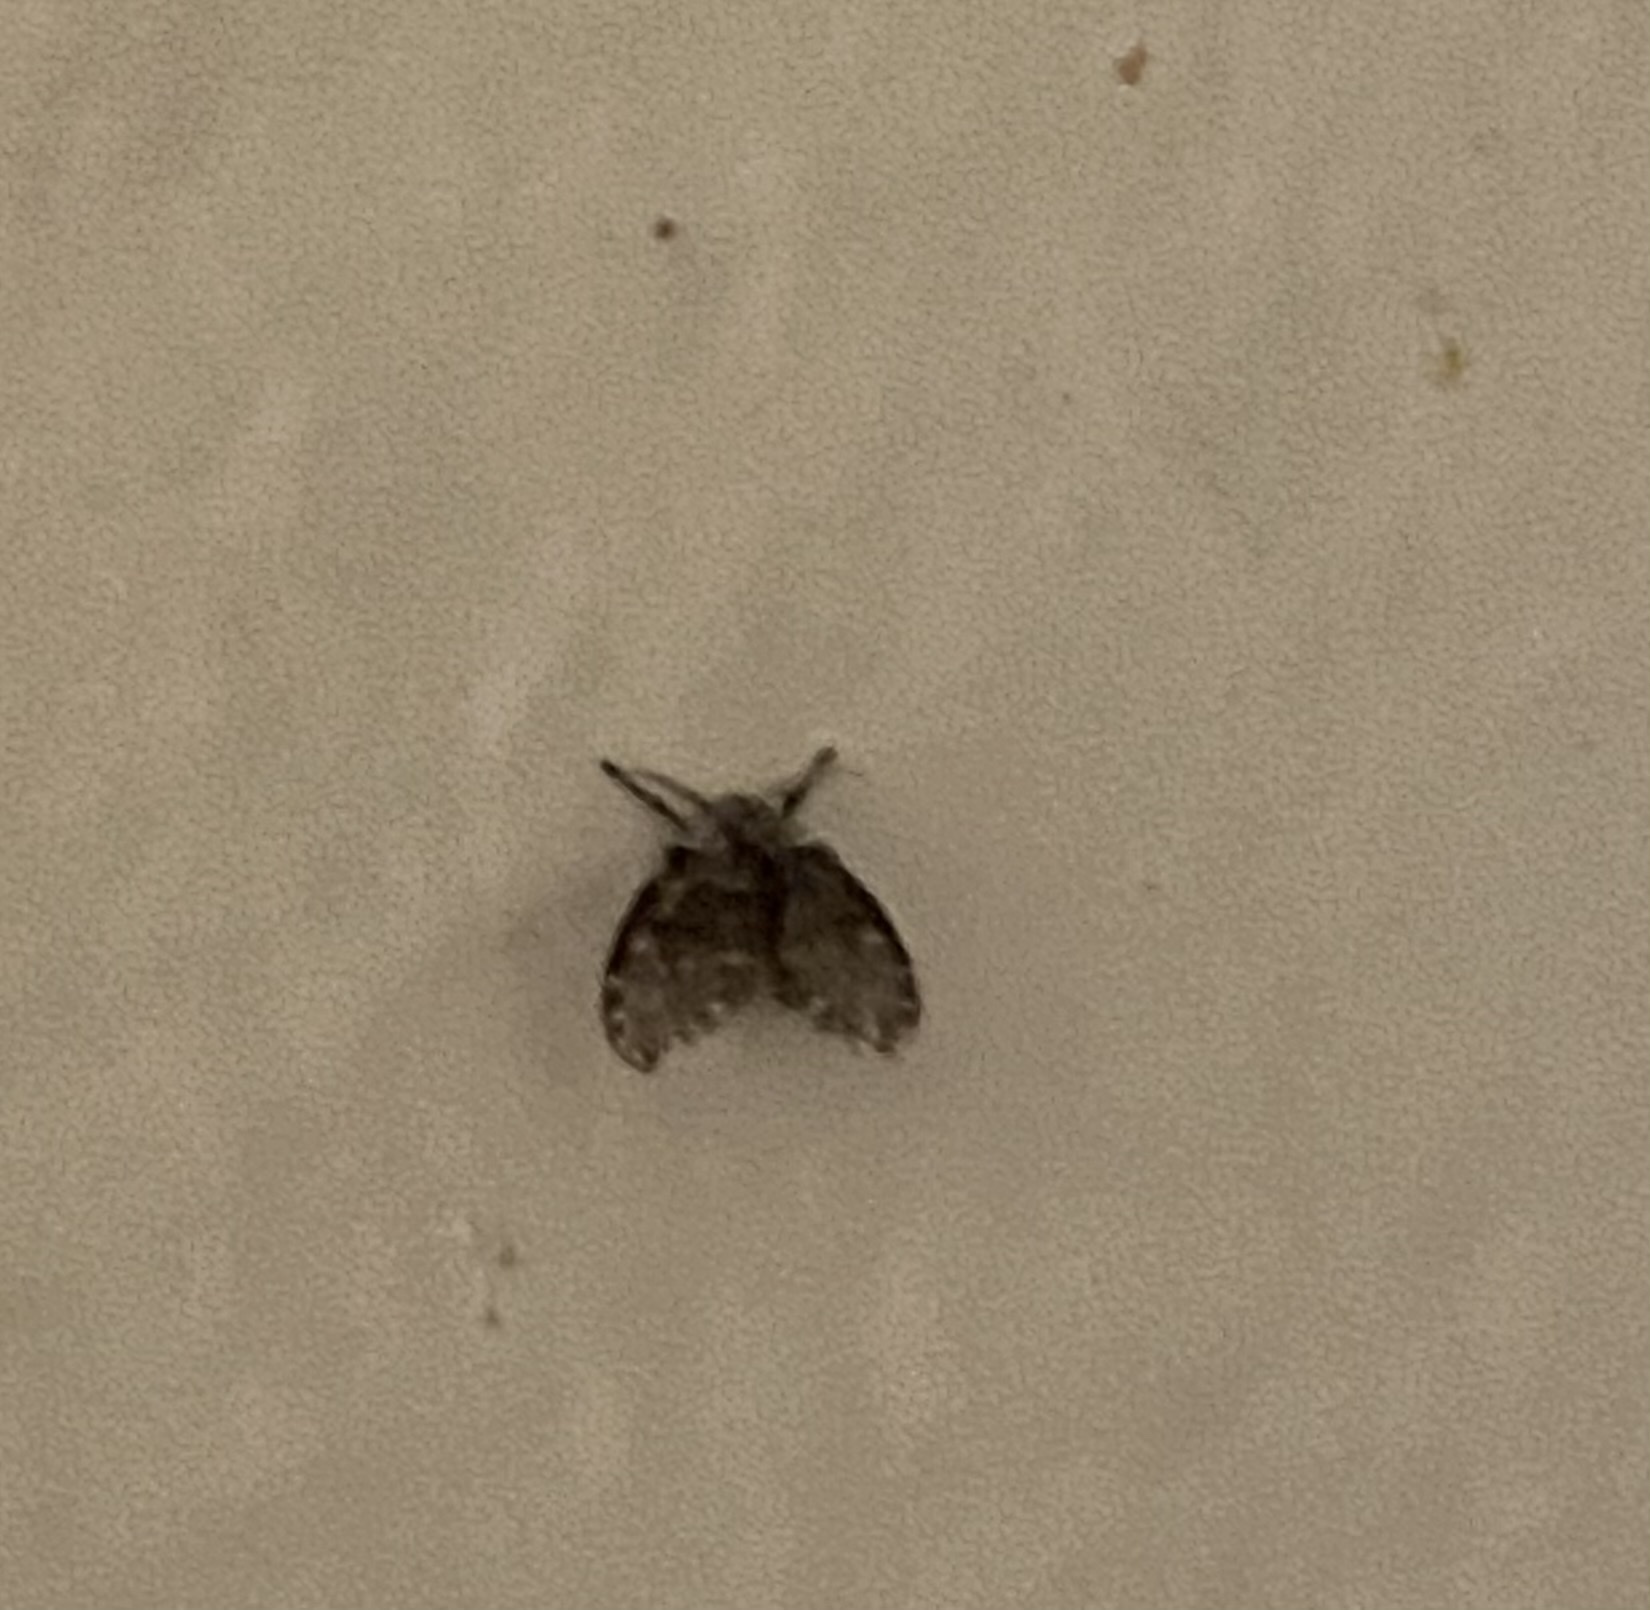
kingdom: Animalia
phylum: Arthropoda
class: Insecta
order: Diptera
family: Psychodidae
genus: Clogmia
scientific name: Clogmia albipunctatus
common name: White-spotted moth fly
